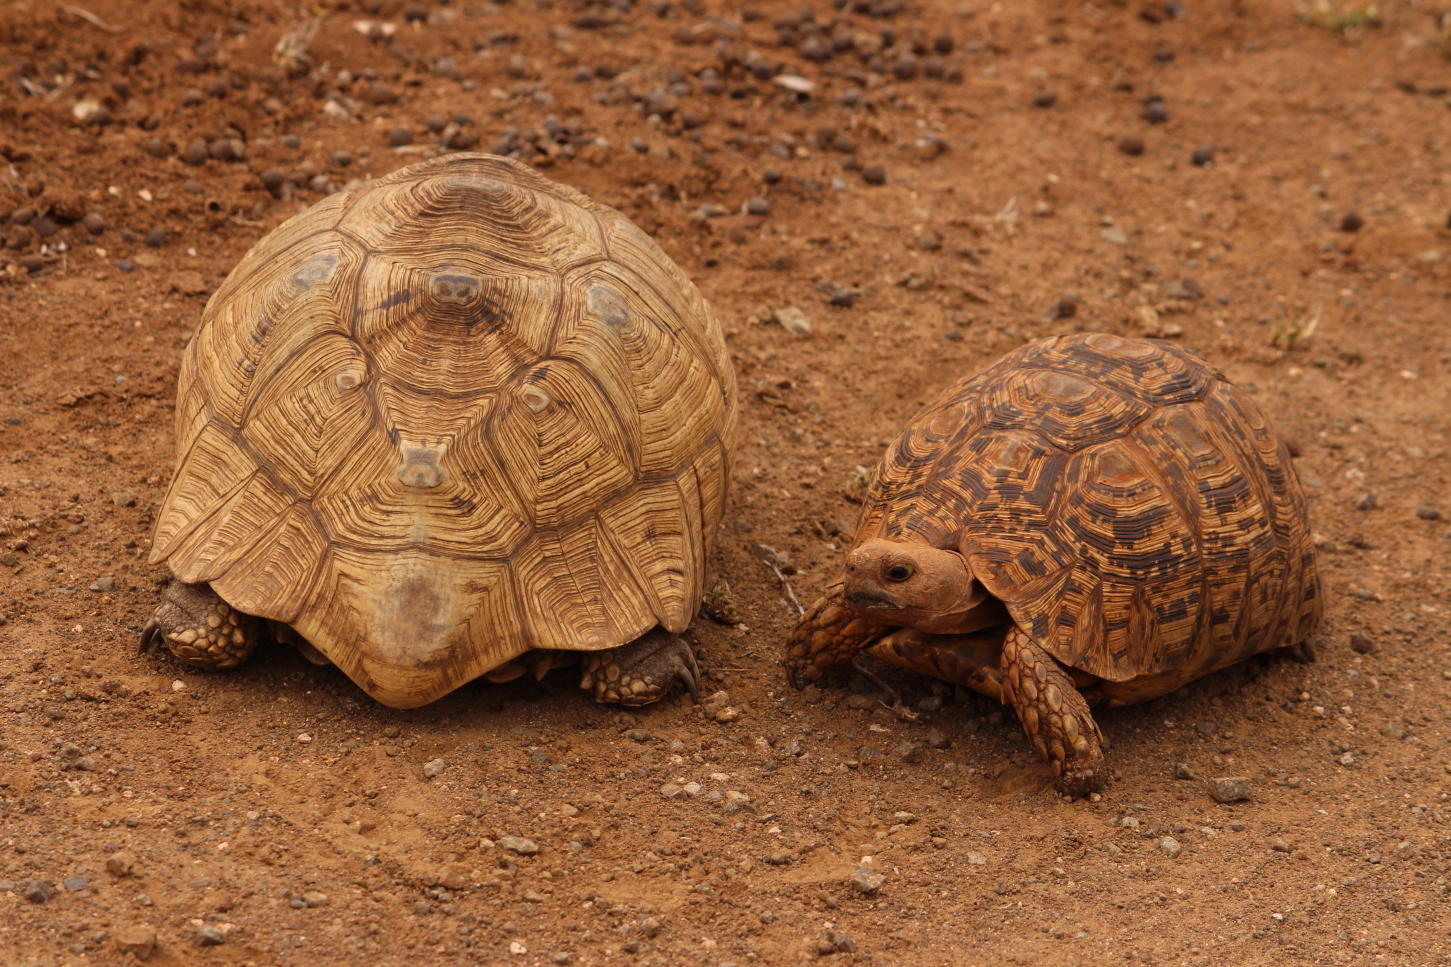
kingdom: Animalia
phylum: Chordata
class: Testudines
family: Testudinidae
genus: Stigmochelys
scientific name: Stigmochelys pardalis
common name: Leopard tortoise
